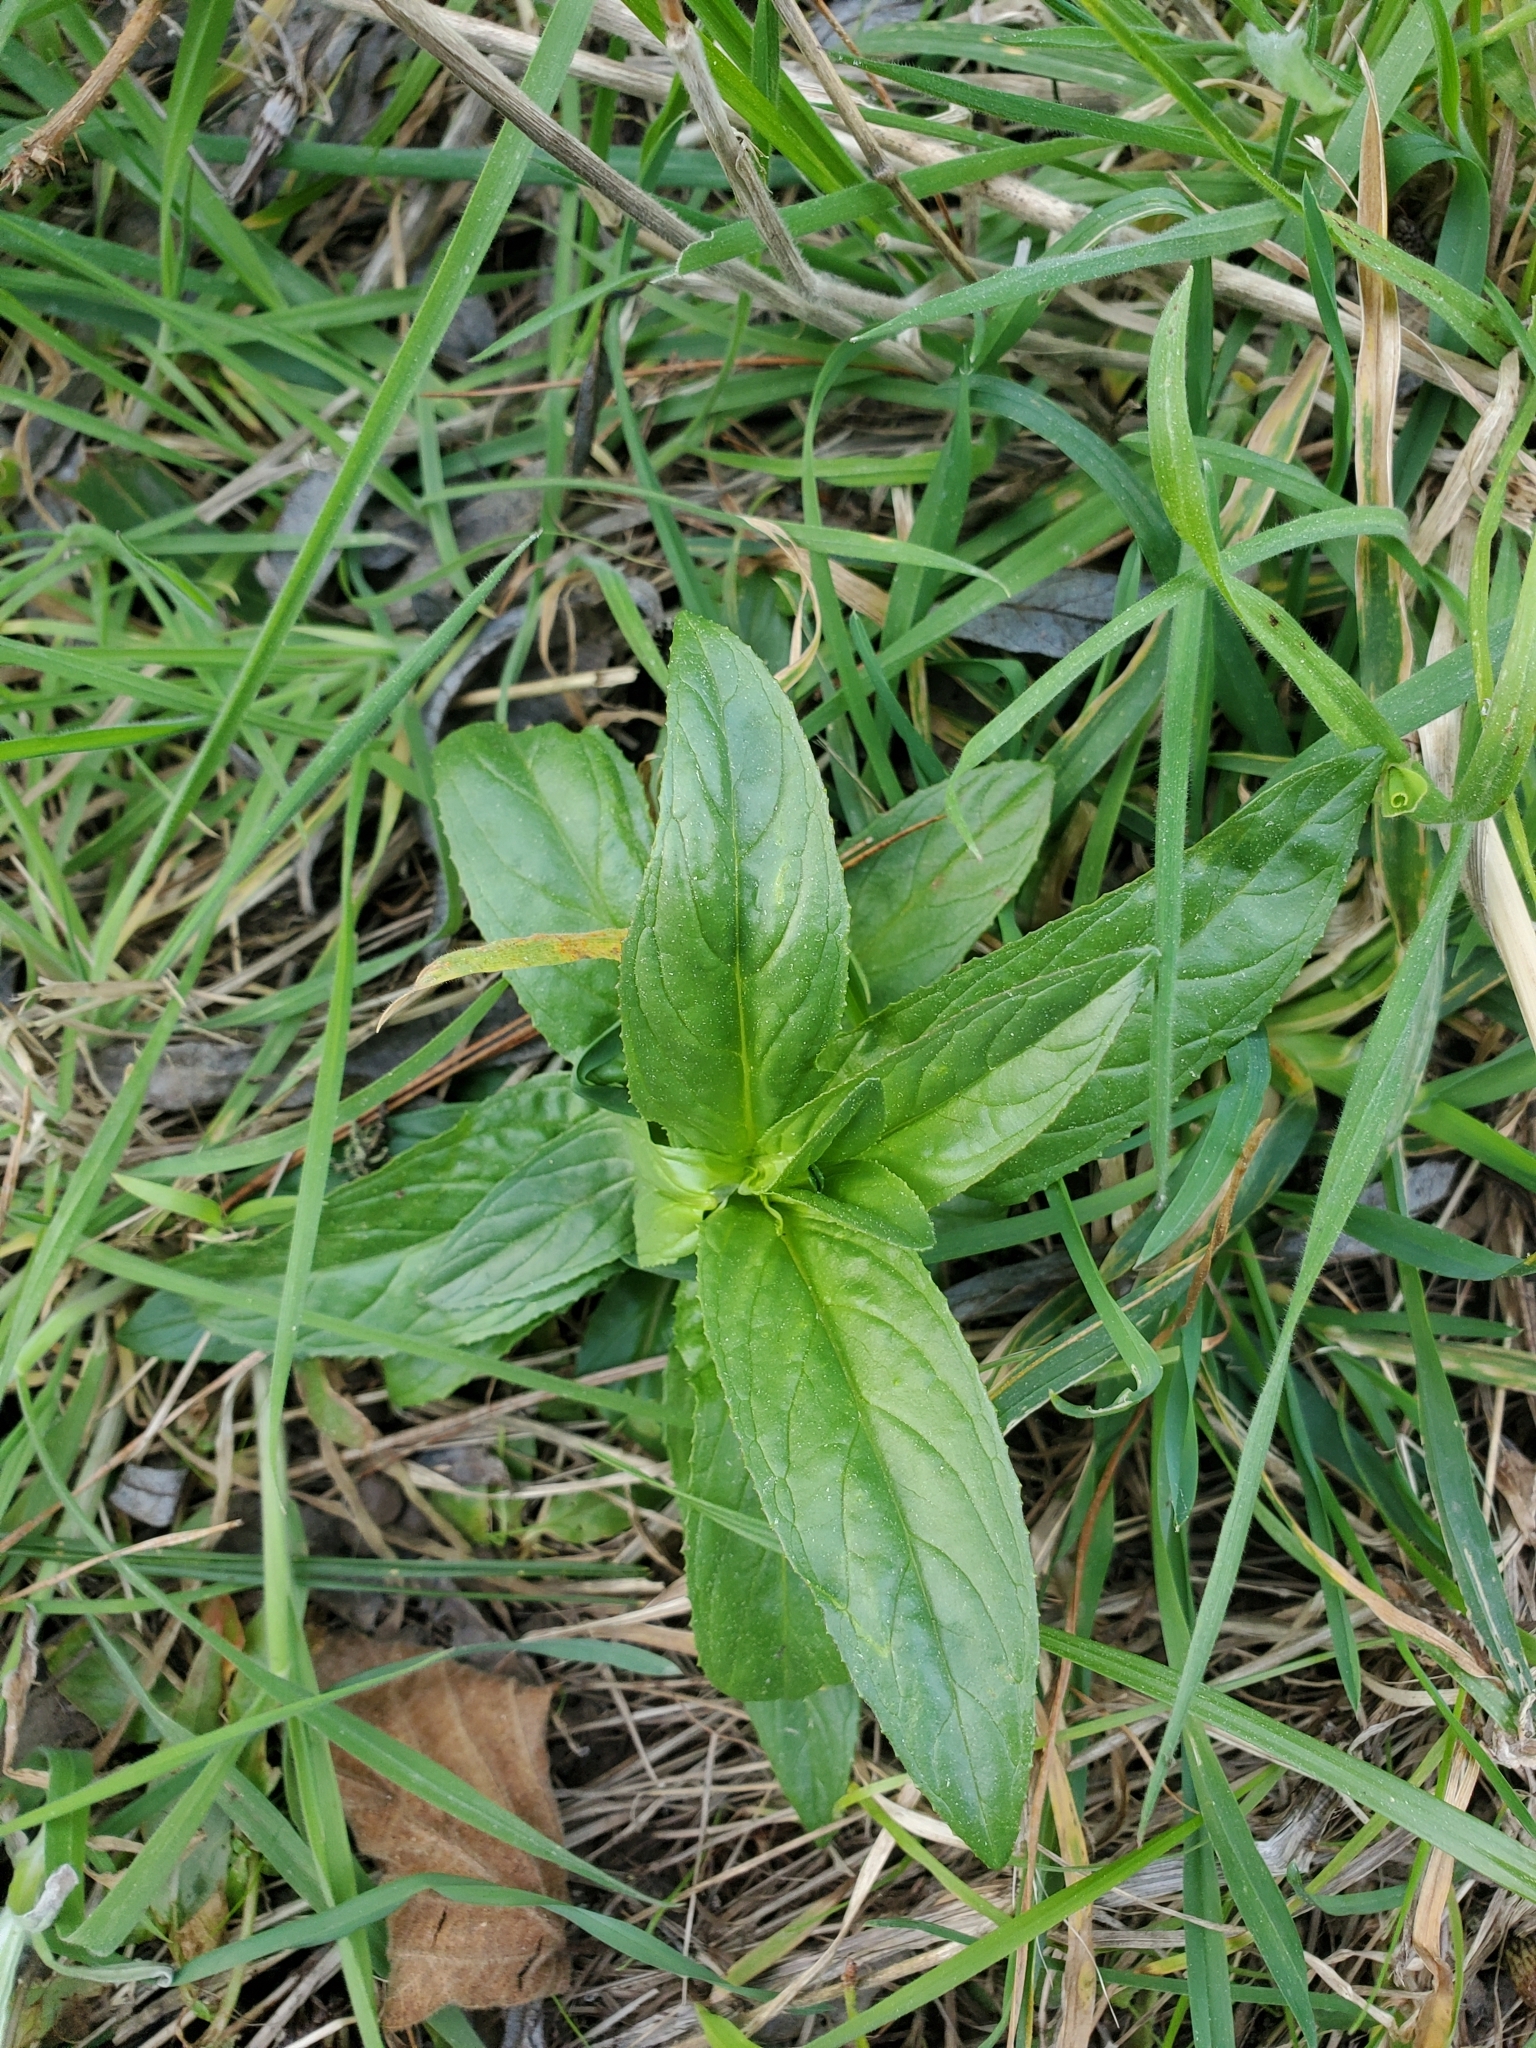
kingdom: Plantae
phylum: Tracheophyta
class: Magnoliopsida
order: Myrtales
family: Onagraceae
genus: Epilobium
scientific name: Epilobium ciliatum
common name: American willowherb
